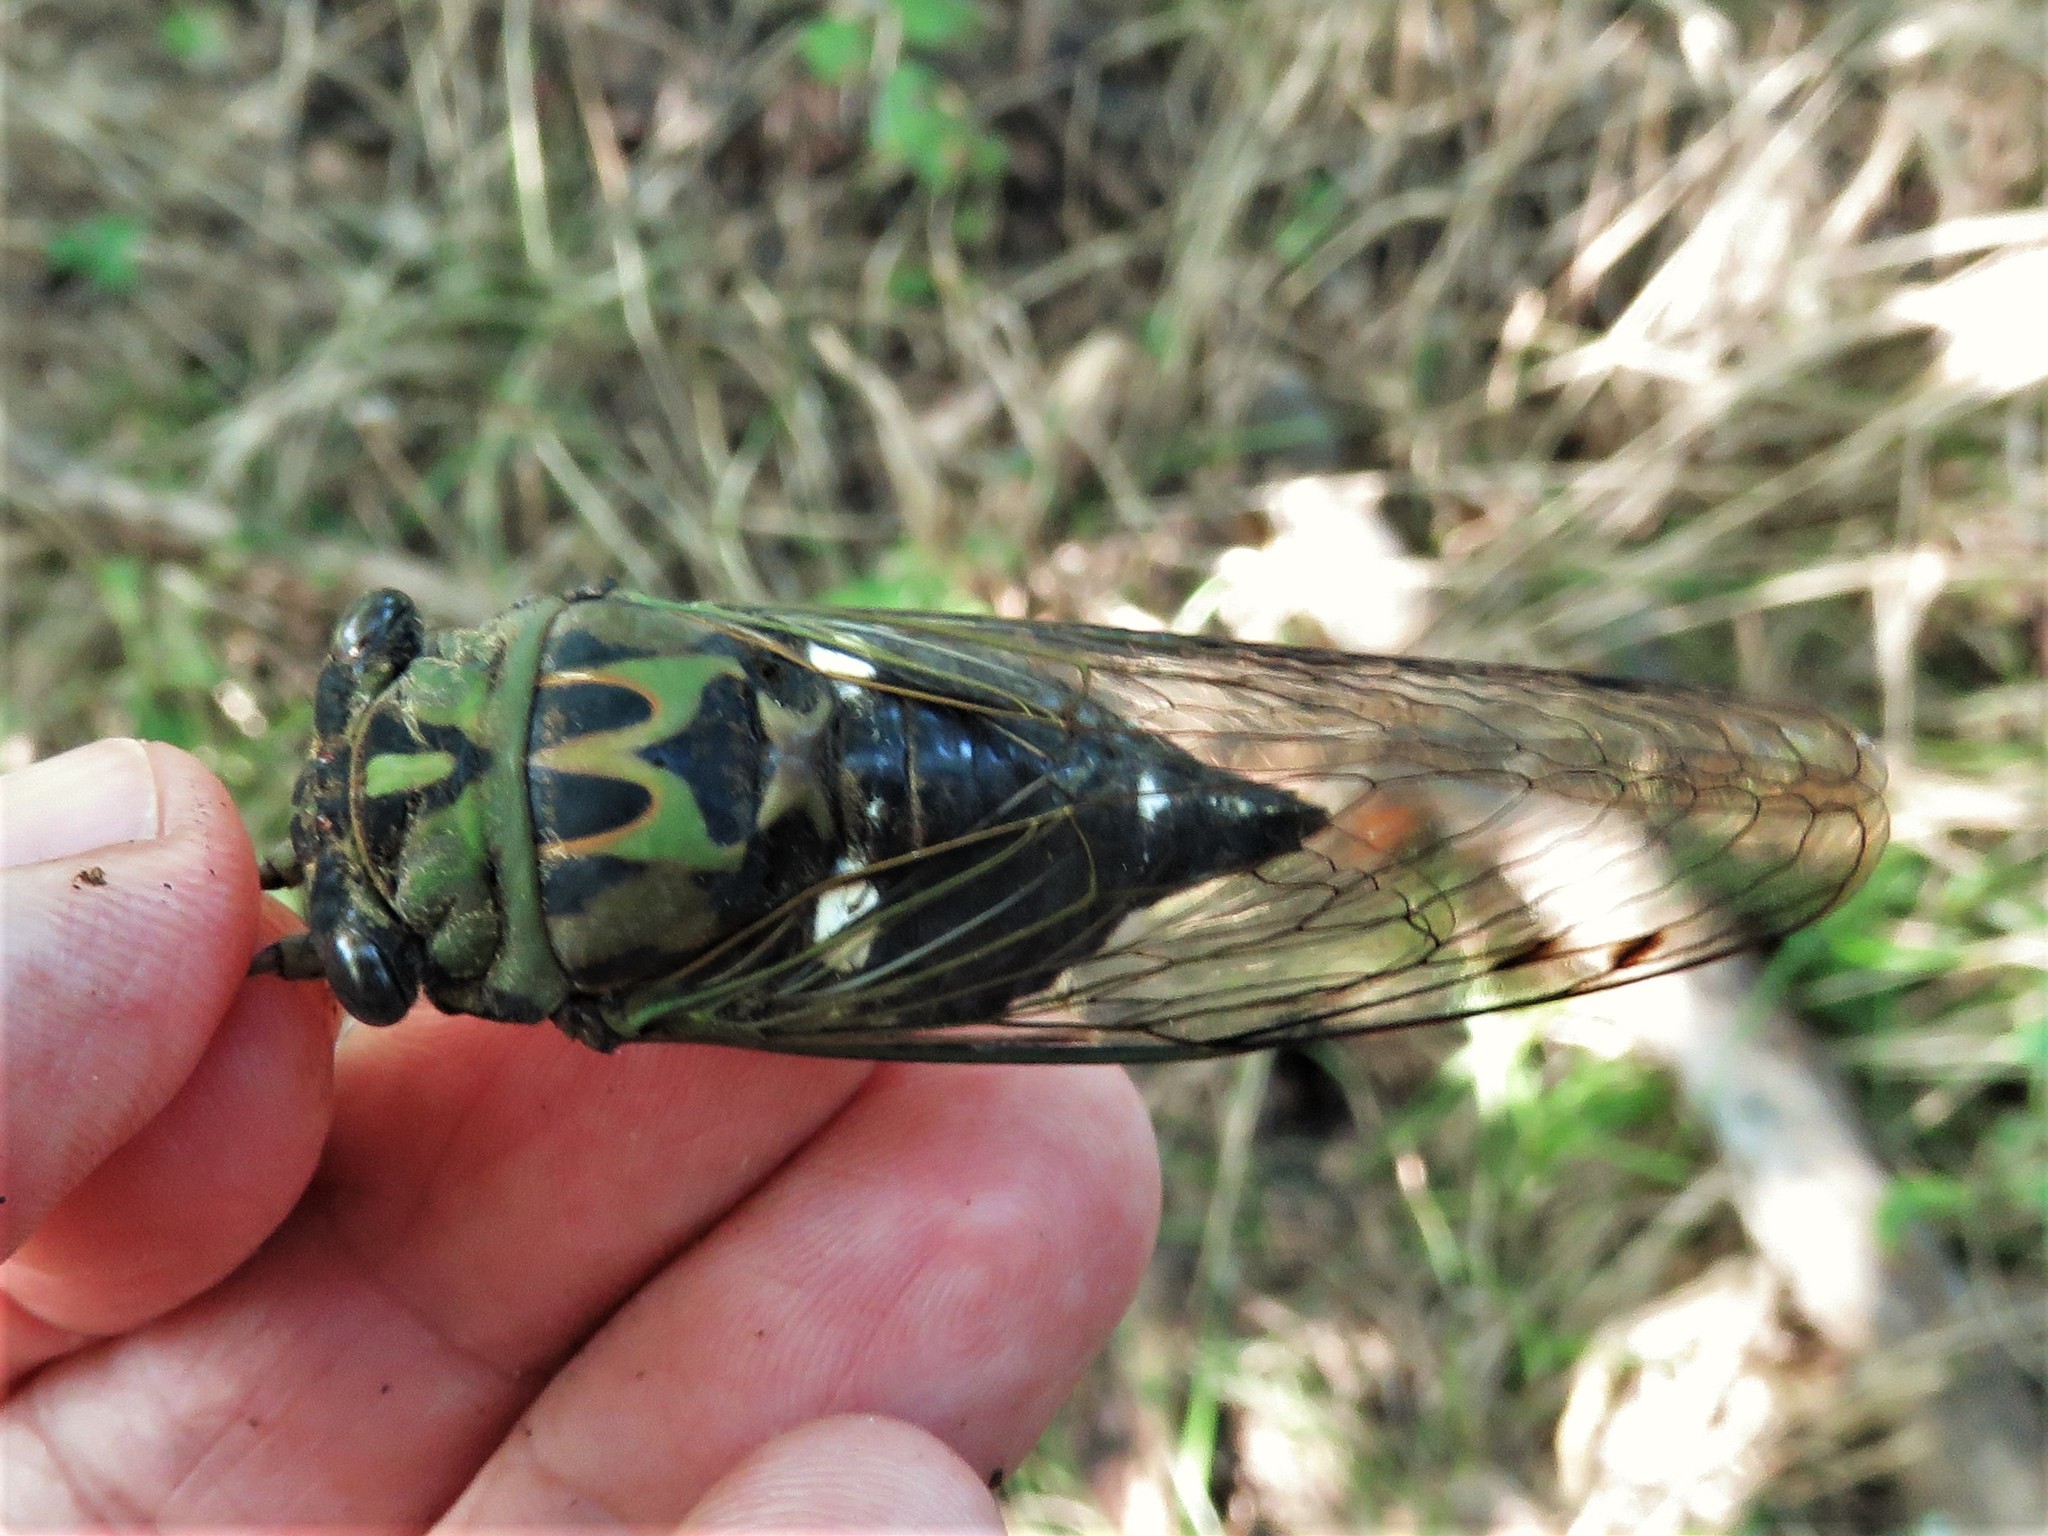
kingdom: Animalia
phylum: Arthropoda
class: Insecta
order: Hemiptera
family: Cicadidae
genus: Neotibicen
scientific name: Neotibicen pruinosus
